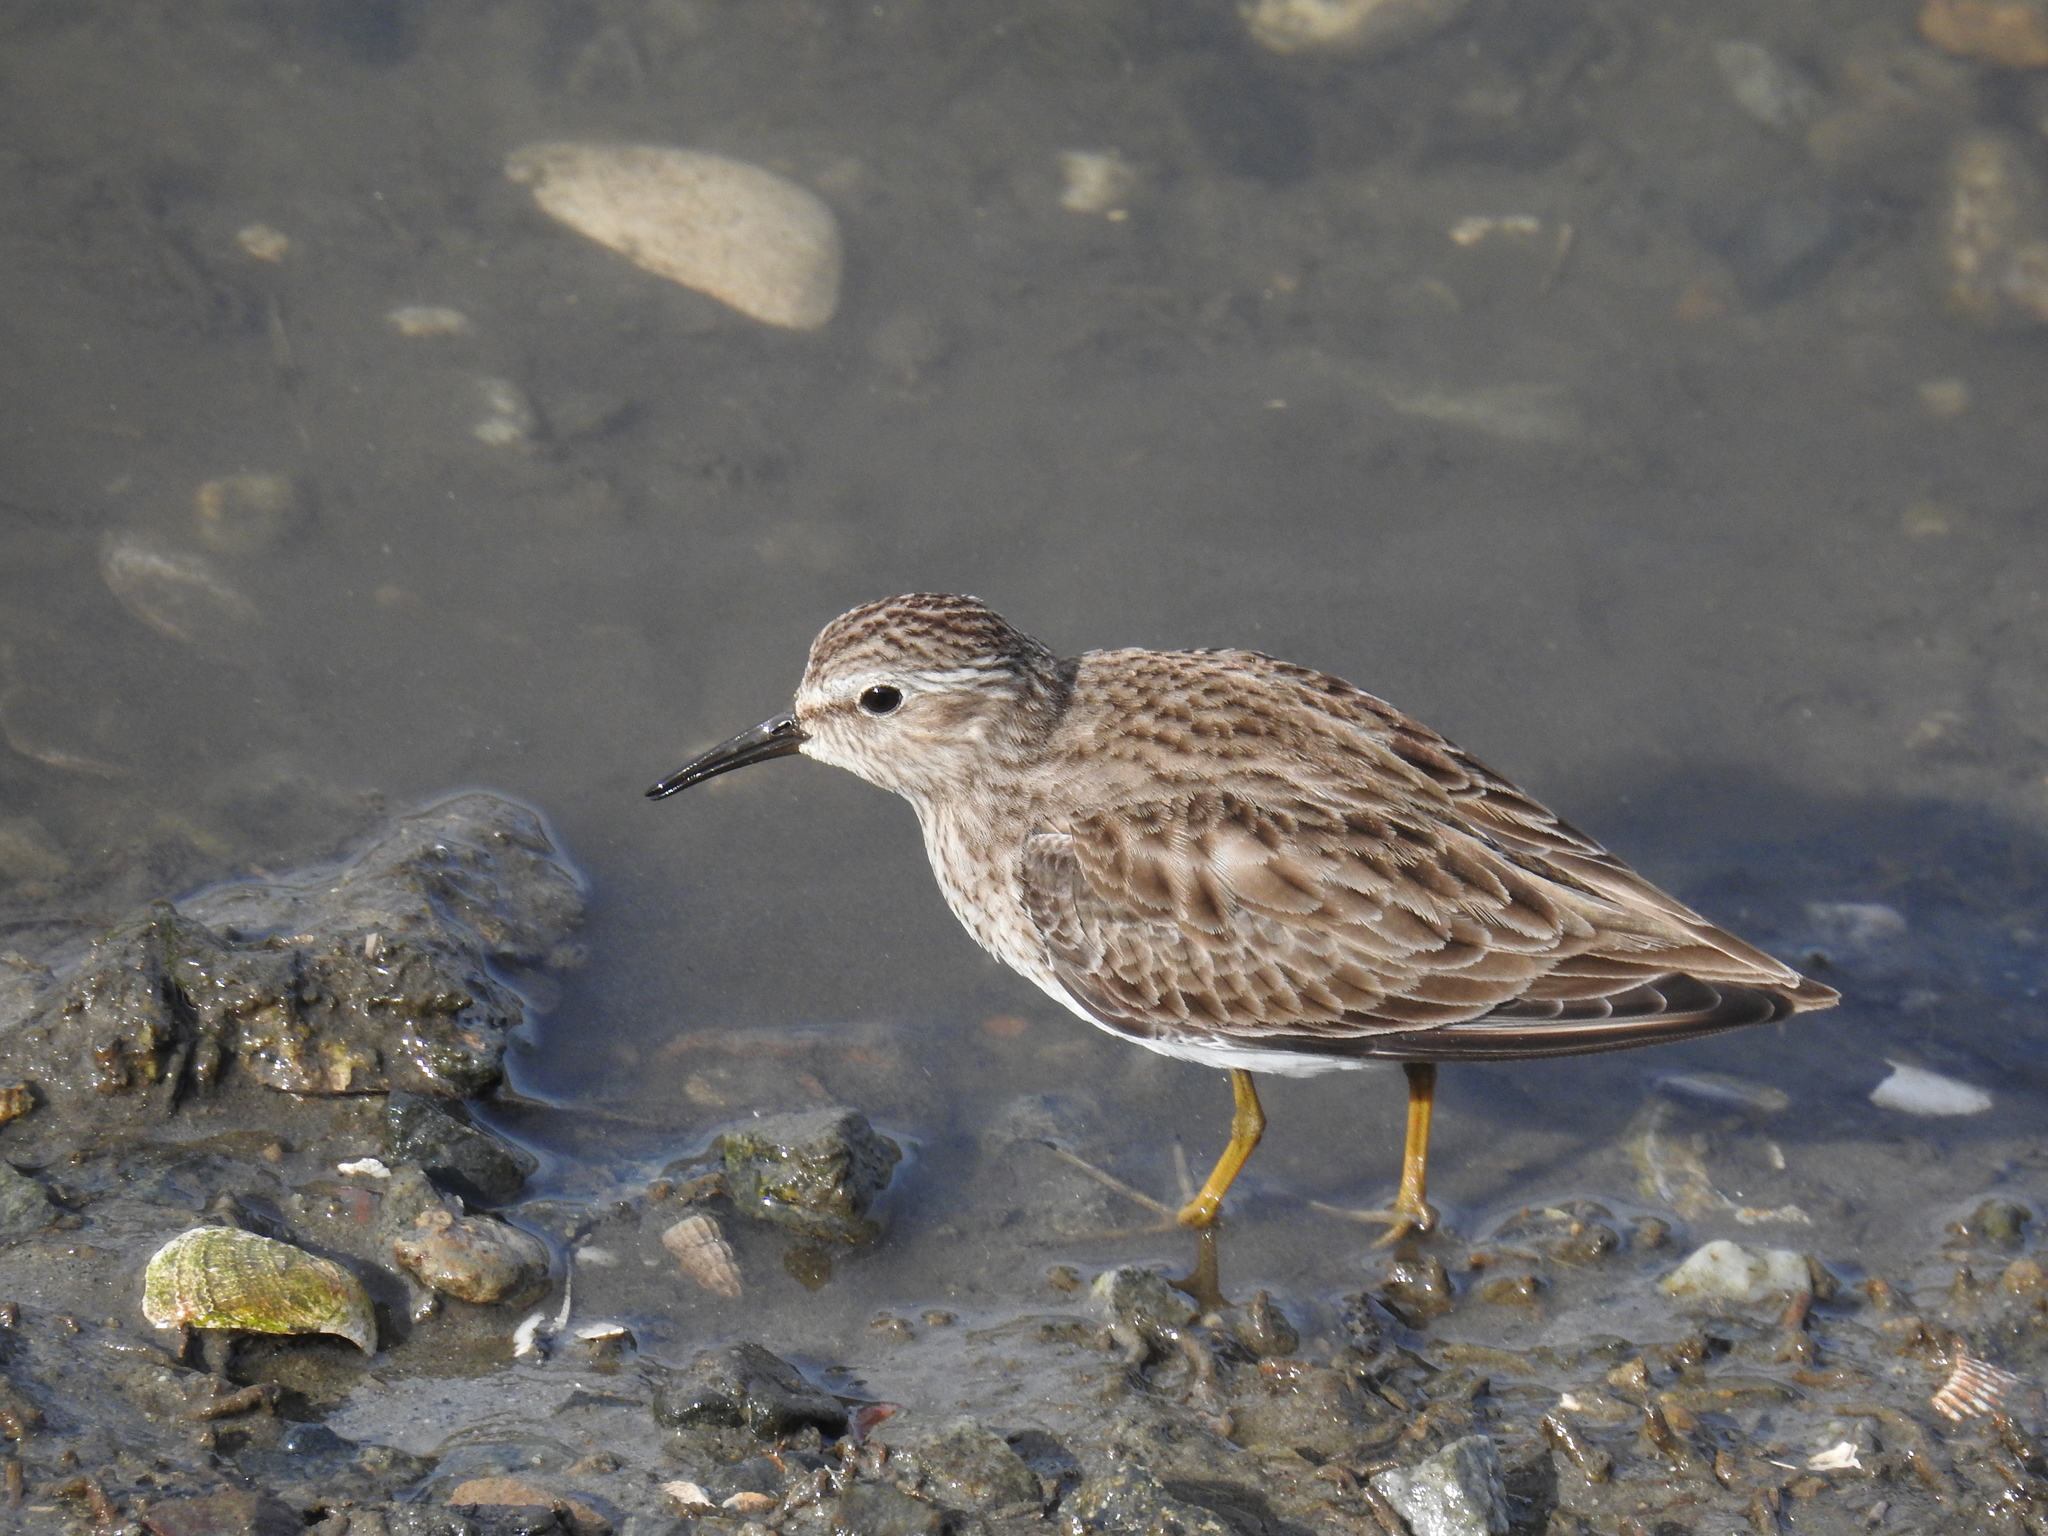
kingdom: Animalia
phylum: Chordata
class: Aves
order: Charadriiformes
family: Scolopacidae
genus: Calidris
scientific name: Calidris minutilla
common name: Least sandpiper
